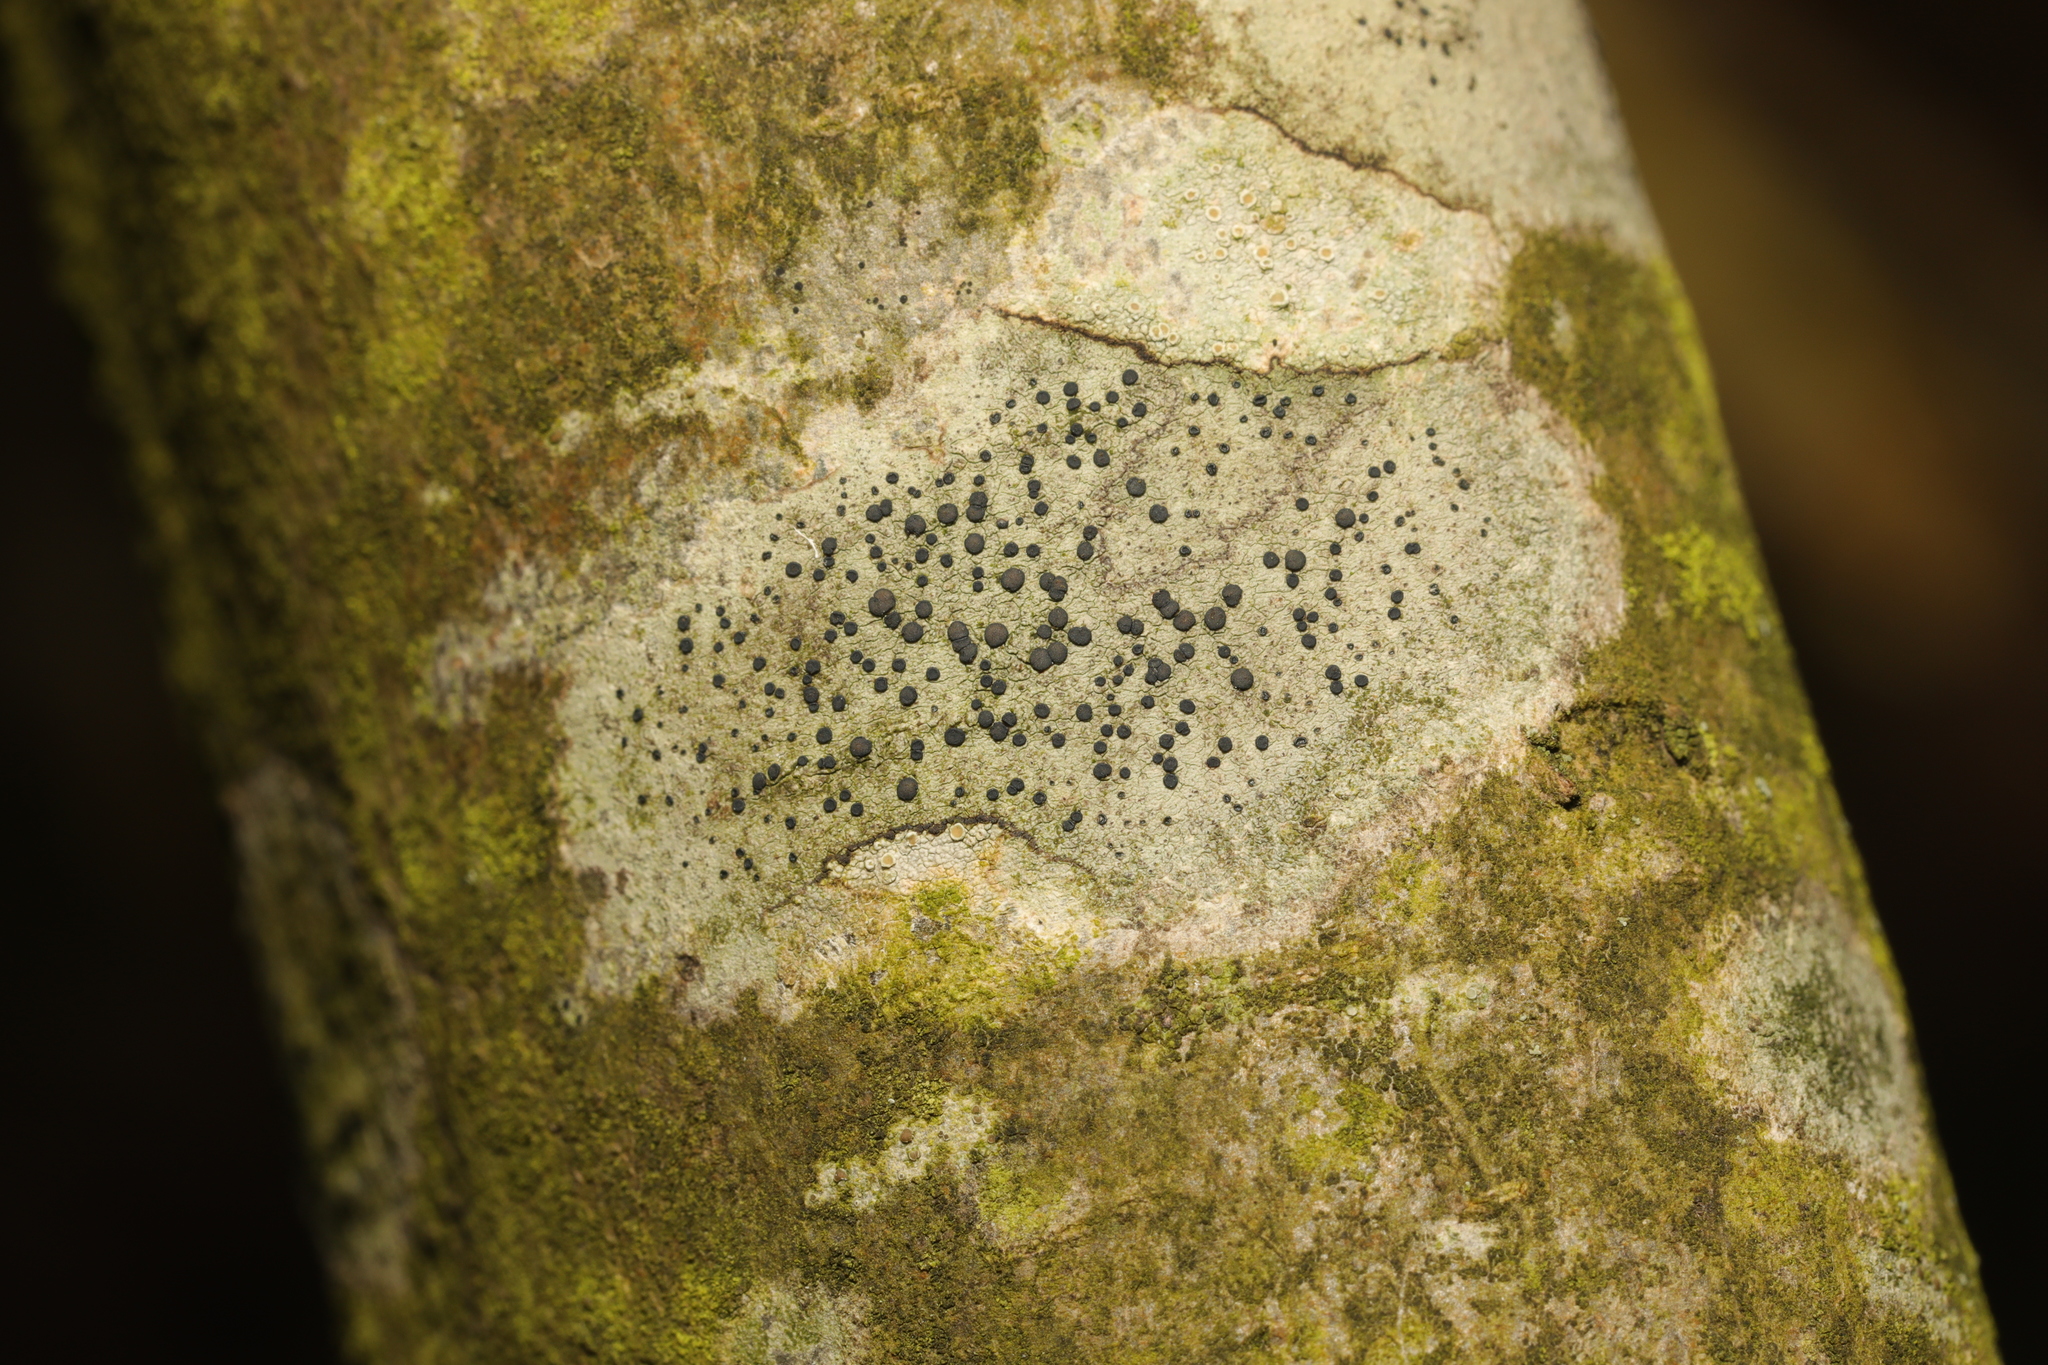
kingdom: Fungi
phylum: Ascomycota
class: Lecanoromycetes
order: Lecanorales
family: Lecanoraceae
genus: Lecidella
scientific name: Lecidella elaeochroma
